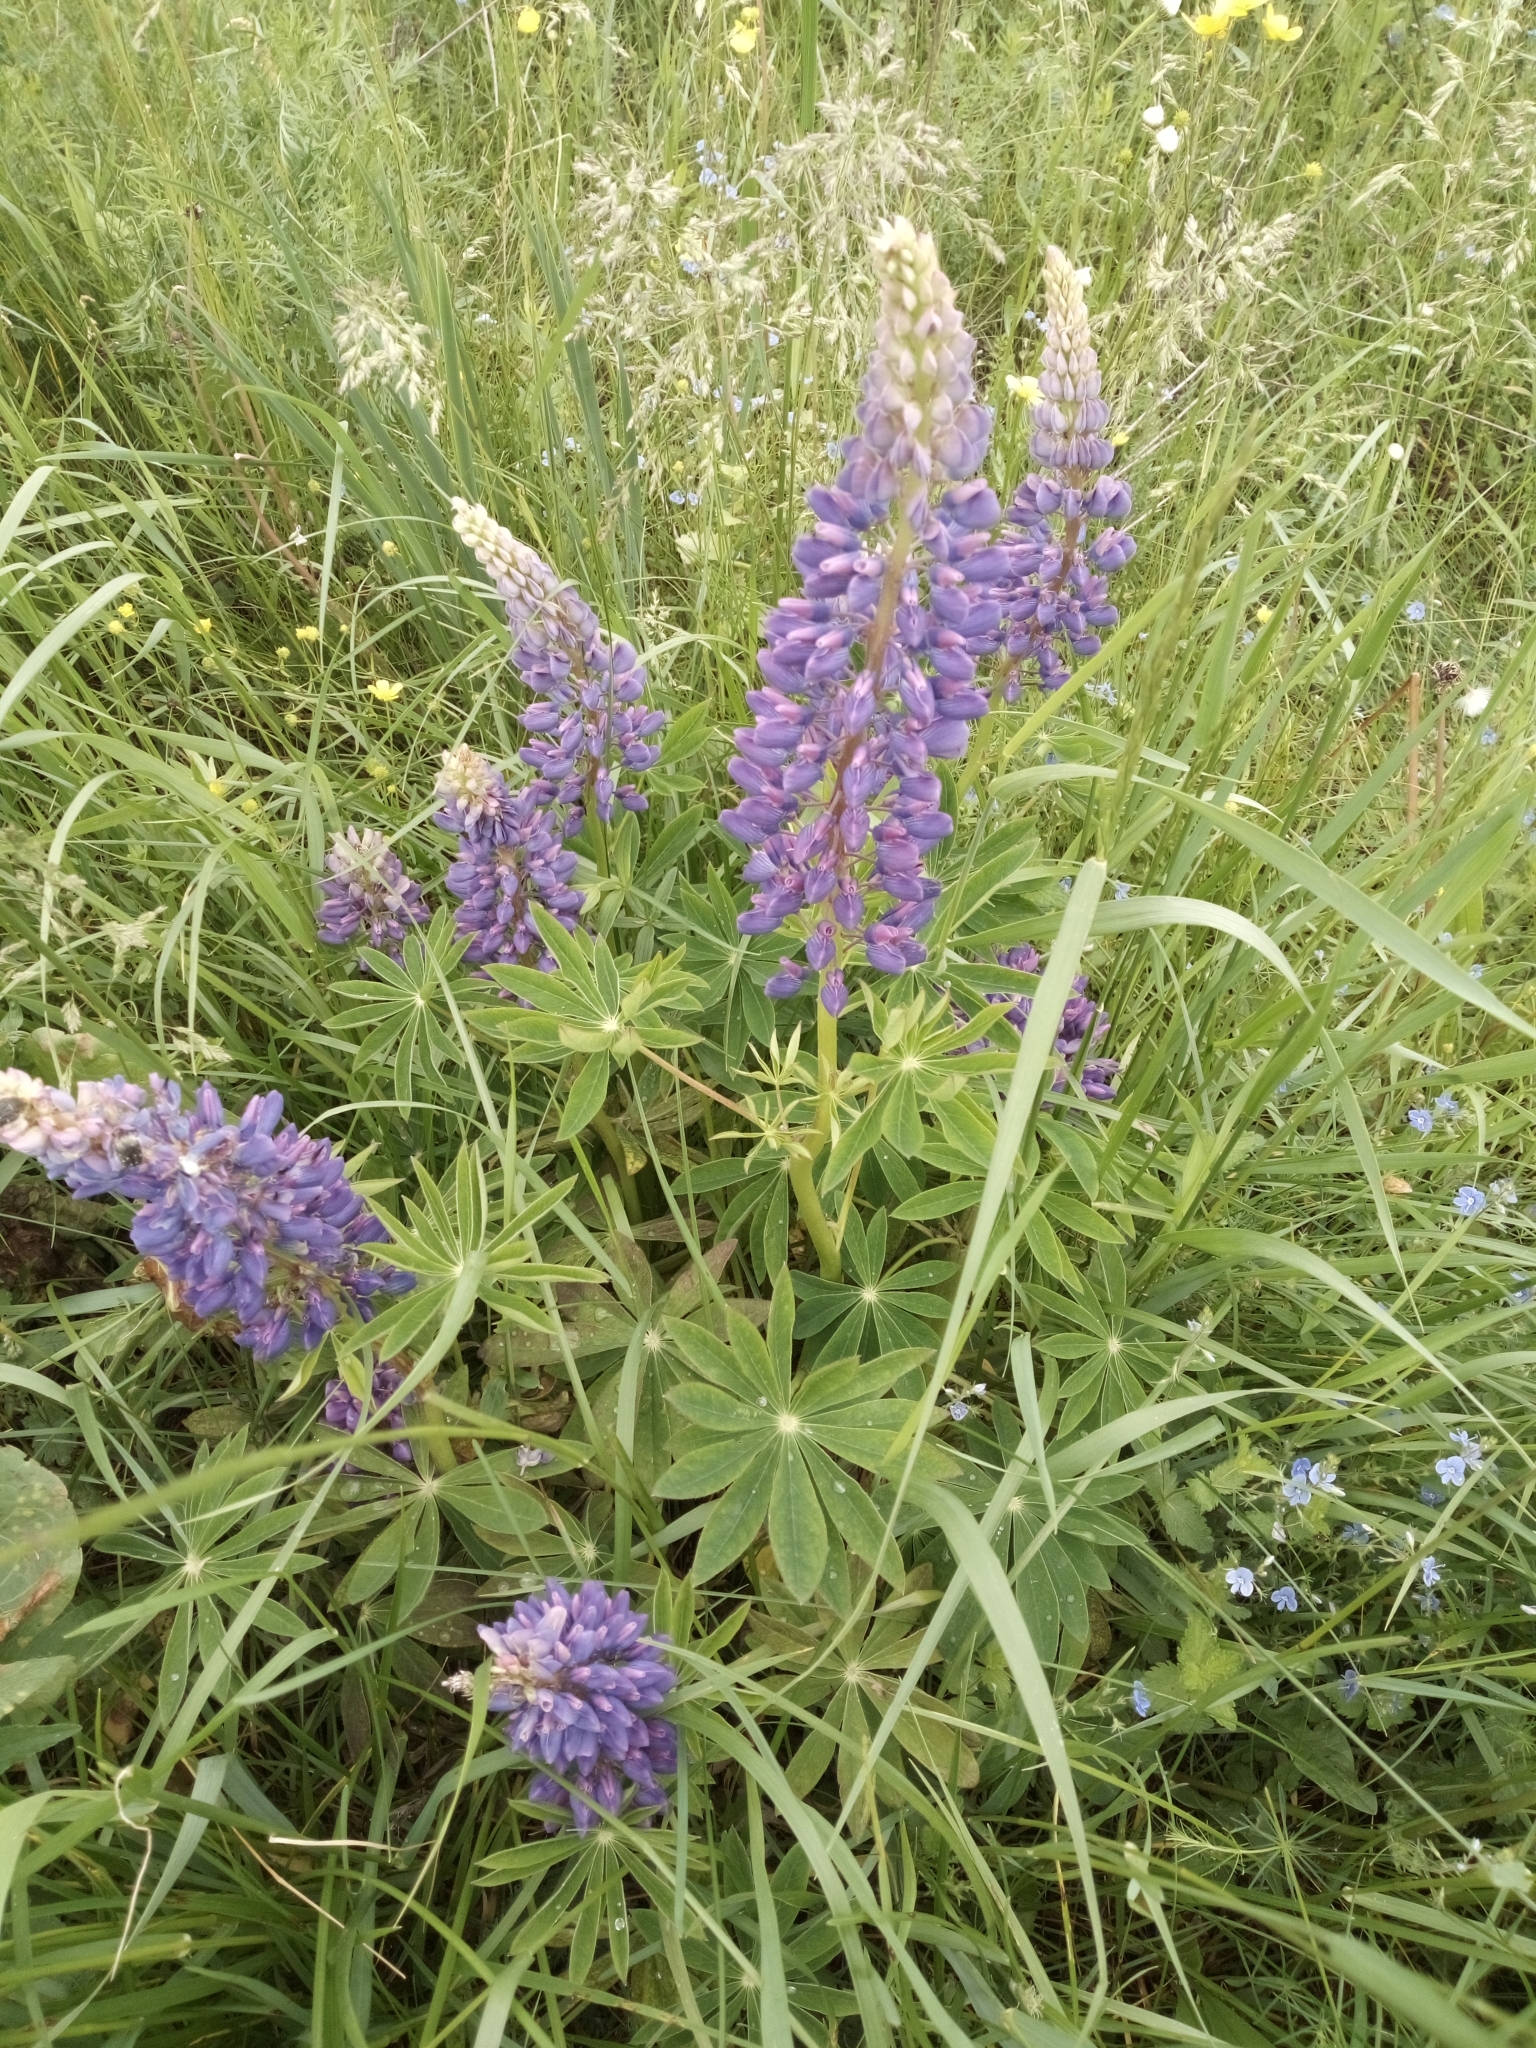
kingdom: Plantae
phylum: Tracheophyta
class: Magnoliopsida
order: Fabales
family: Fabaceae
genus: Lupinus
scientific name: Lupinus polyphyllus
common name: Garden lupin
